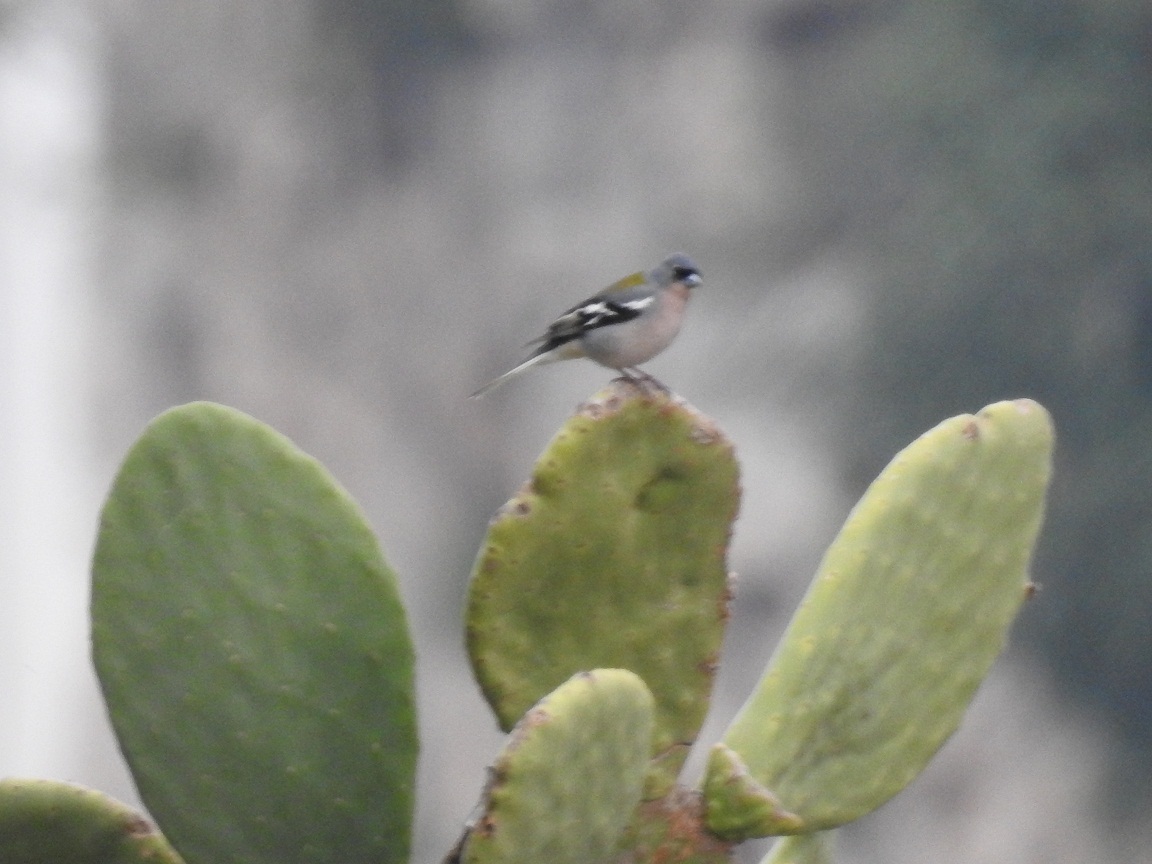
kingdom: Animalia
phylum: Chordata
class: Aves
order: Passeriformes
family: Fringillidae
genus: Fringilla
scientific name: Fringilla spodiogenys
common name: African chaffinch
